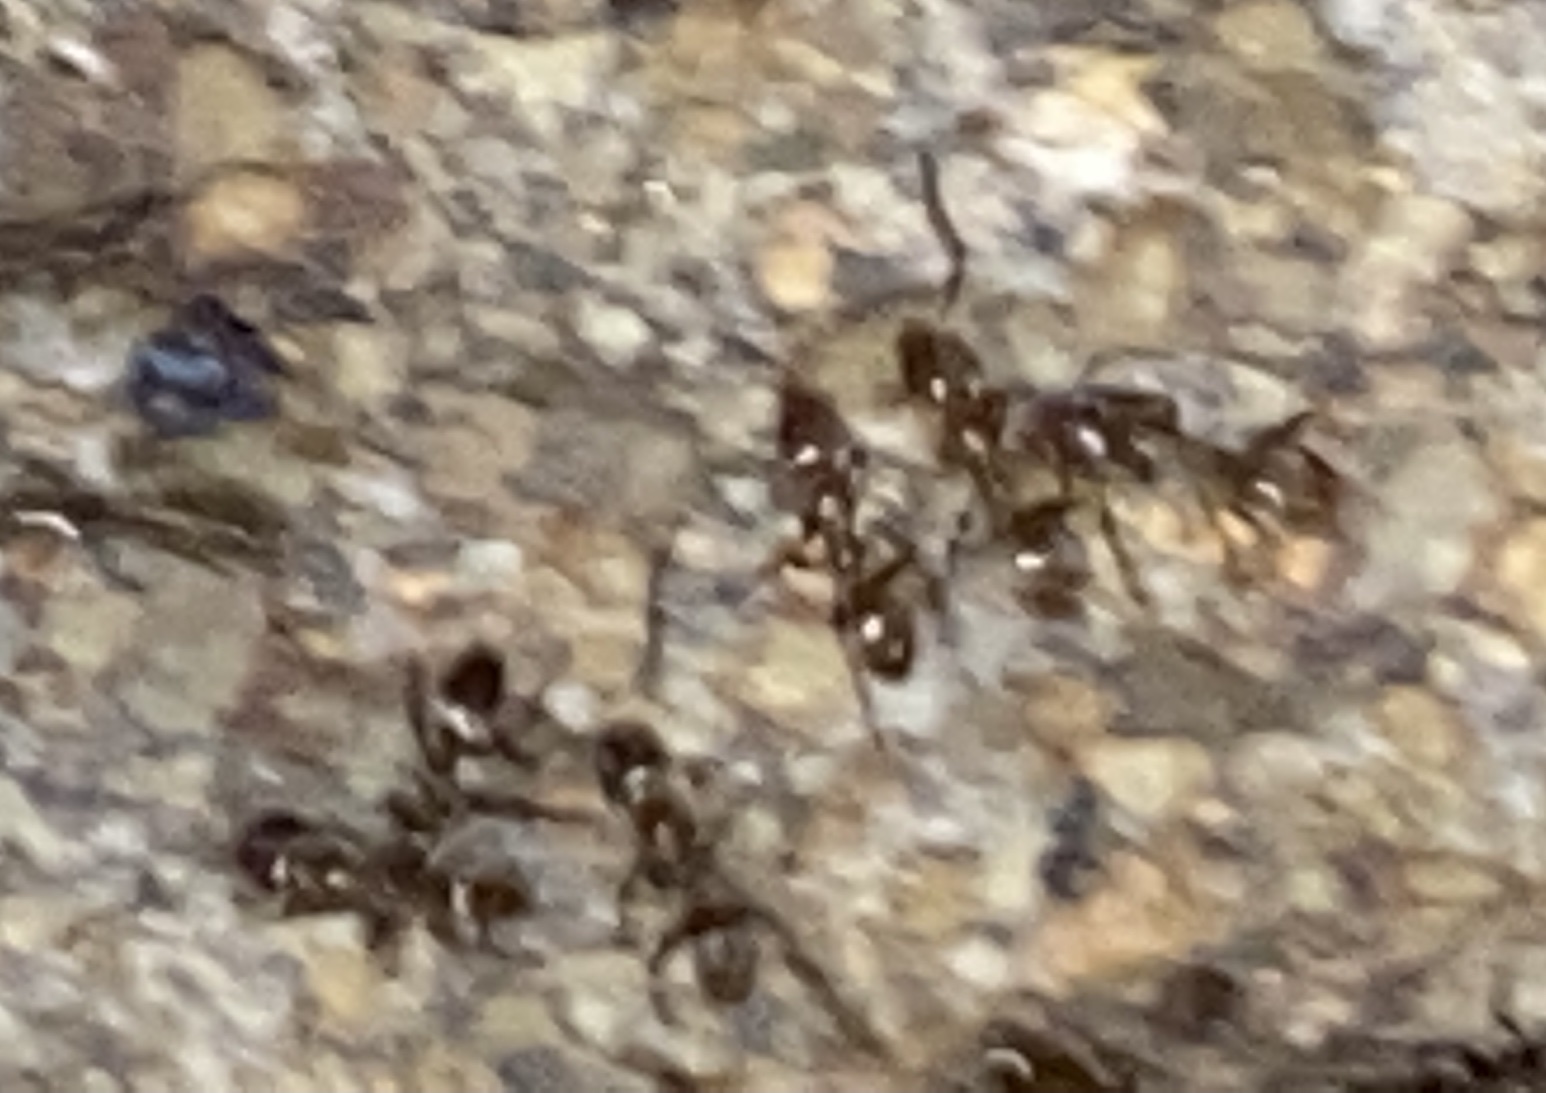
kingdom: Animalia
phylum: Arthropoda
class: Insecta
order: Hymenoptera
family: Formicidae
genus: Linepithema
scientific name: Linepithema humile
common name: Argentine ant
